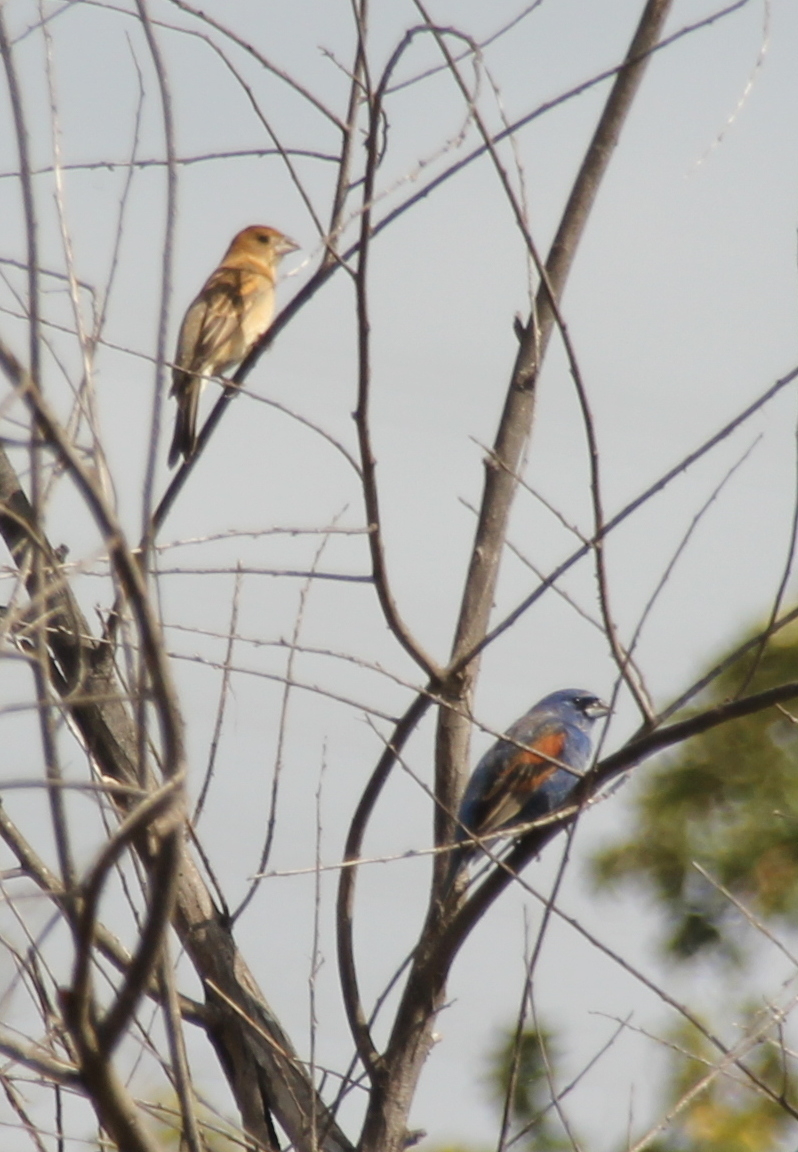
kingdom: Animalia
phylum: Chordata
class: Aves
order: Passeriformes
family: Cardinalidae
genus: Passerina
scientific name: Passerina caerulea
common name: Blue grosbeak
